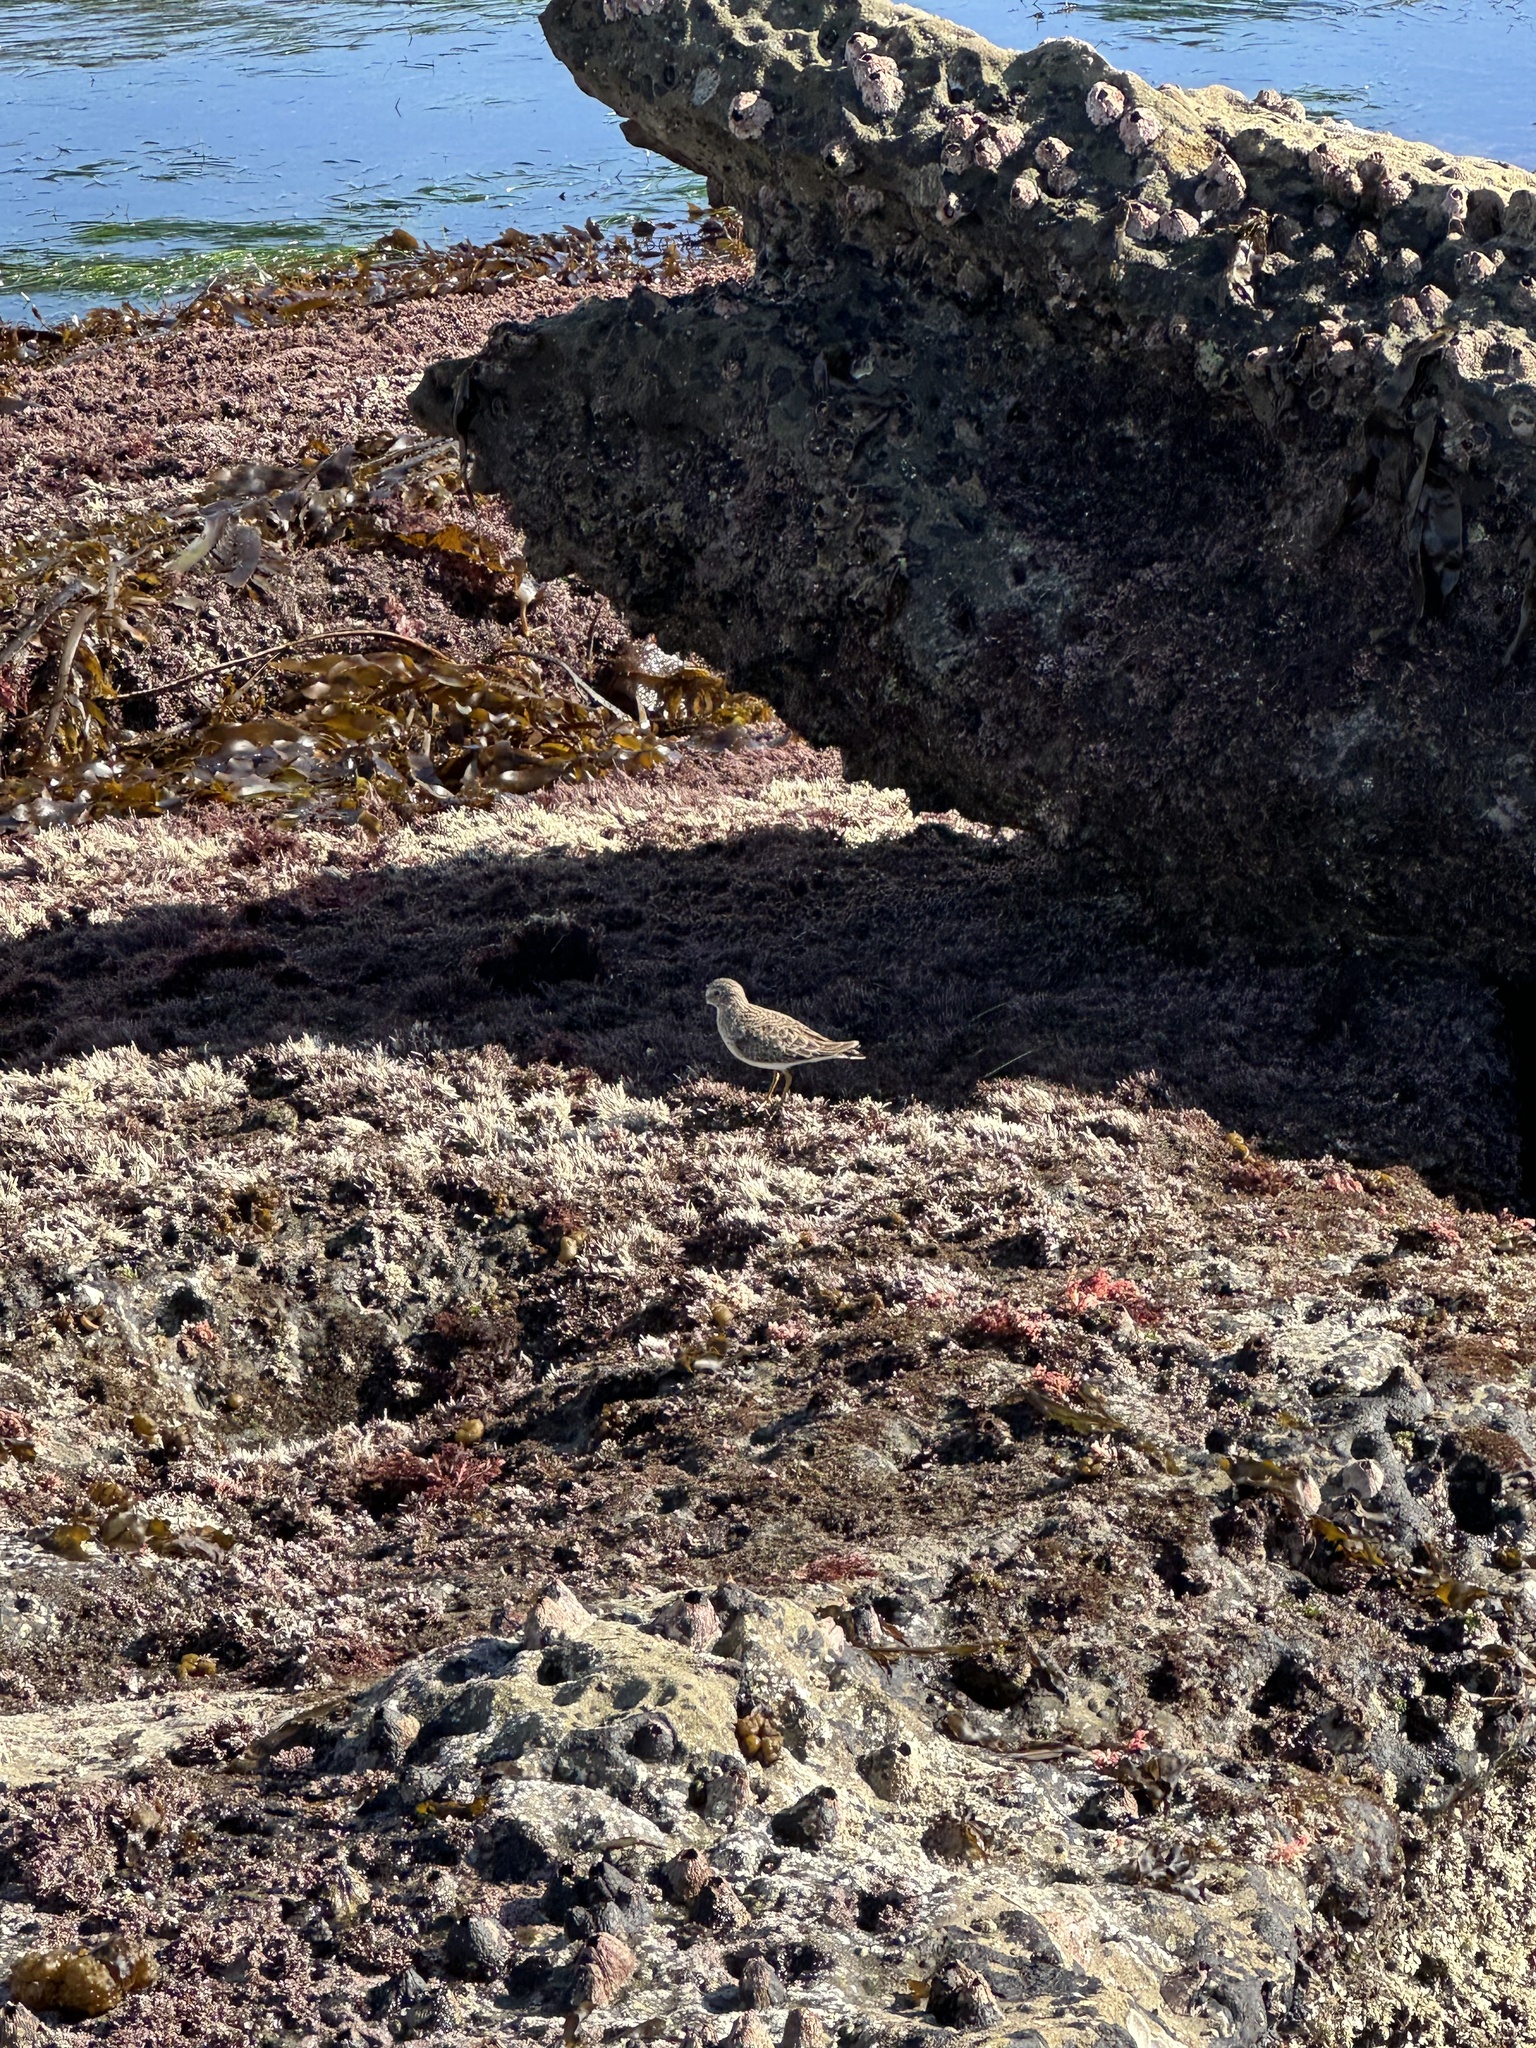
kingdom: Animalia
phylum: Chordata
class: Aves
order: Charadriiformes
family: Scolopacidae
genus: Calidris
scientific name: Calidris minutilla
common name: Least sandpiper
